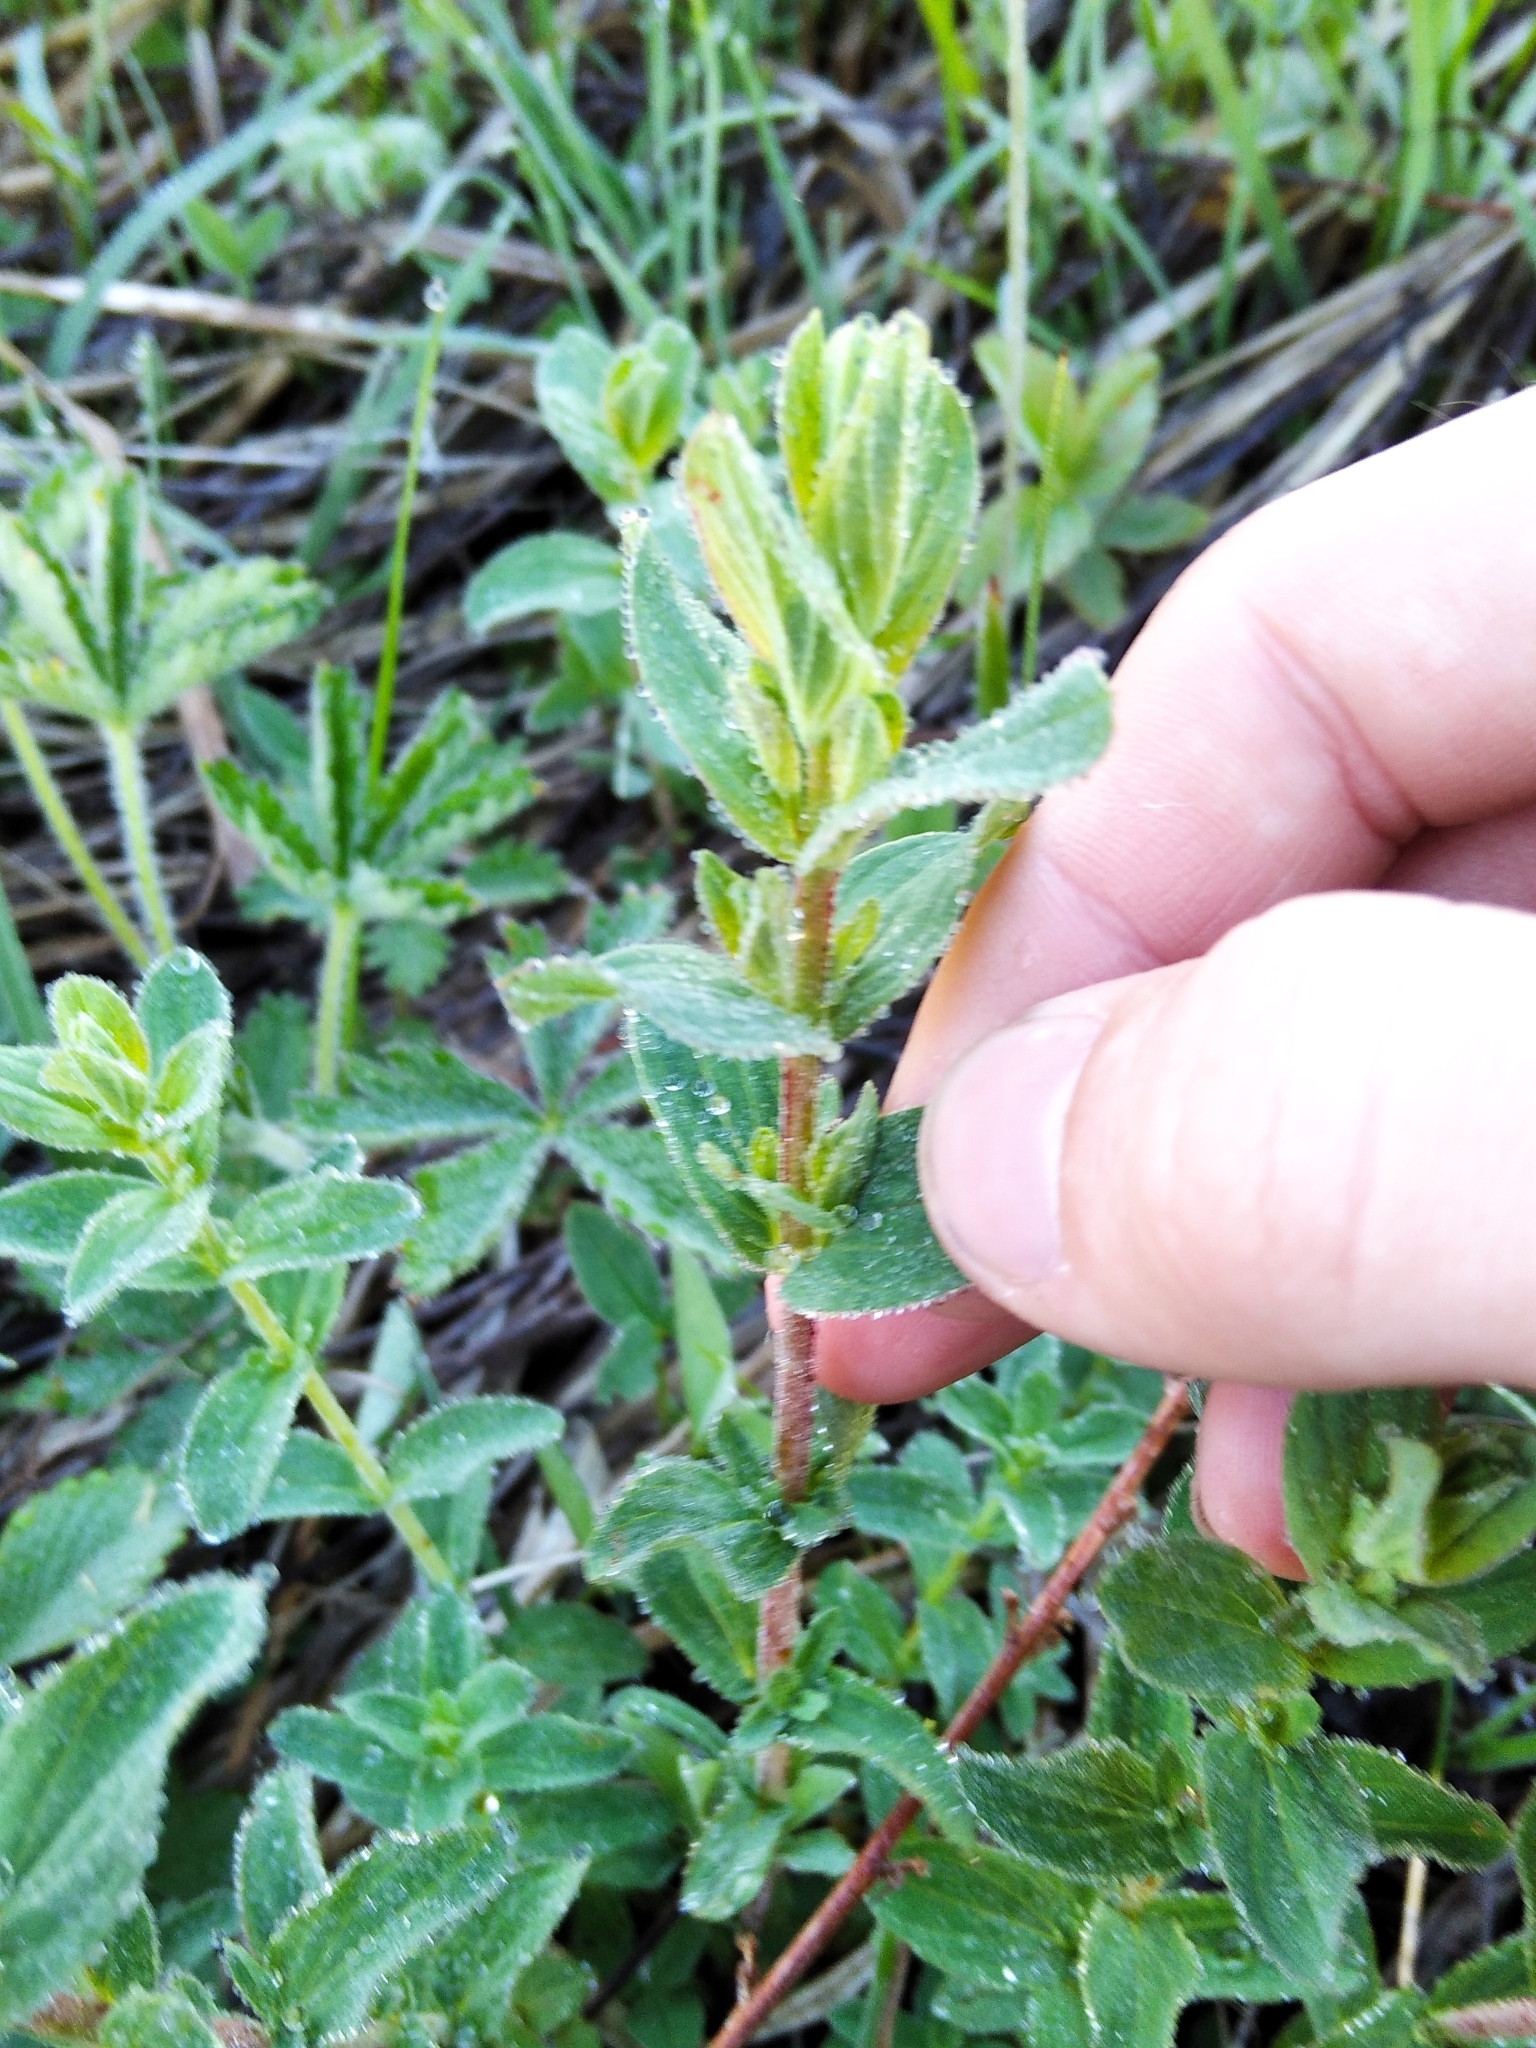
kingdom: Plantae
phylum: Tracheophyta
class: Magnoliopsida
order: Malpighiales
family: Hypericaceae
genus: Hypericum
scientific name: Hypericum perforatum
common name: Common st. johnswort
